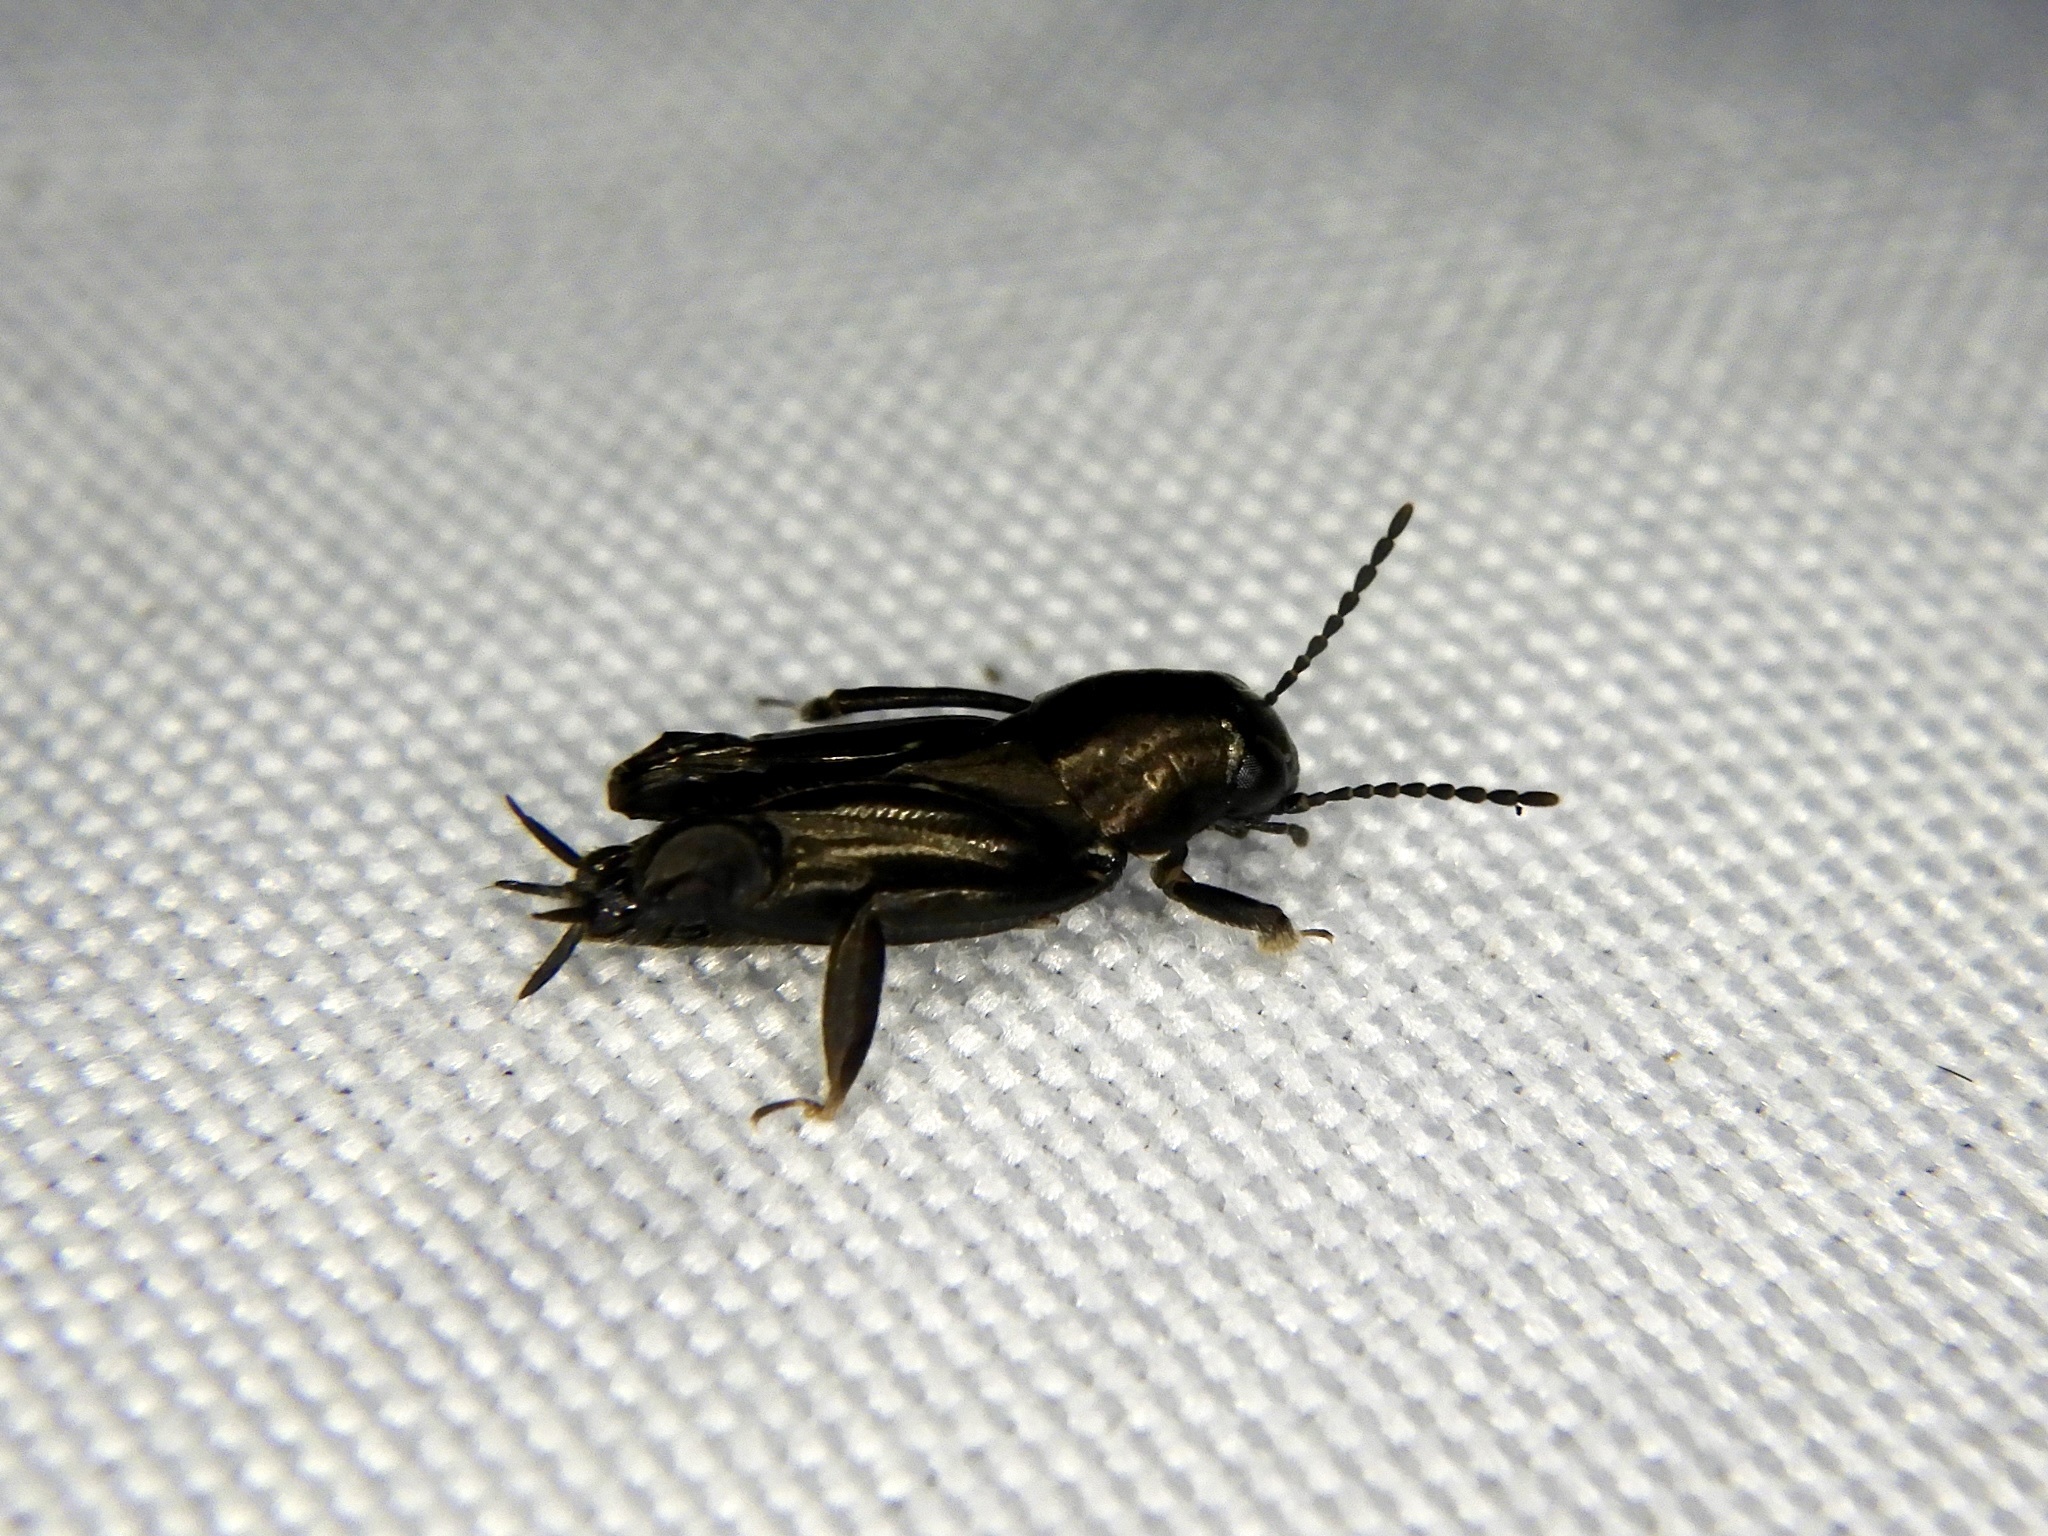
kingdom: Animalia
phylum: Arthropoda
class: Insecta
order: Orthoptera
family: Tridactylidae
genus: Xya
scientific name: Xya japonica
